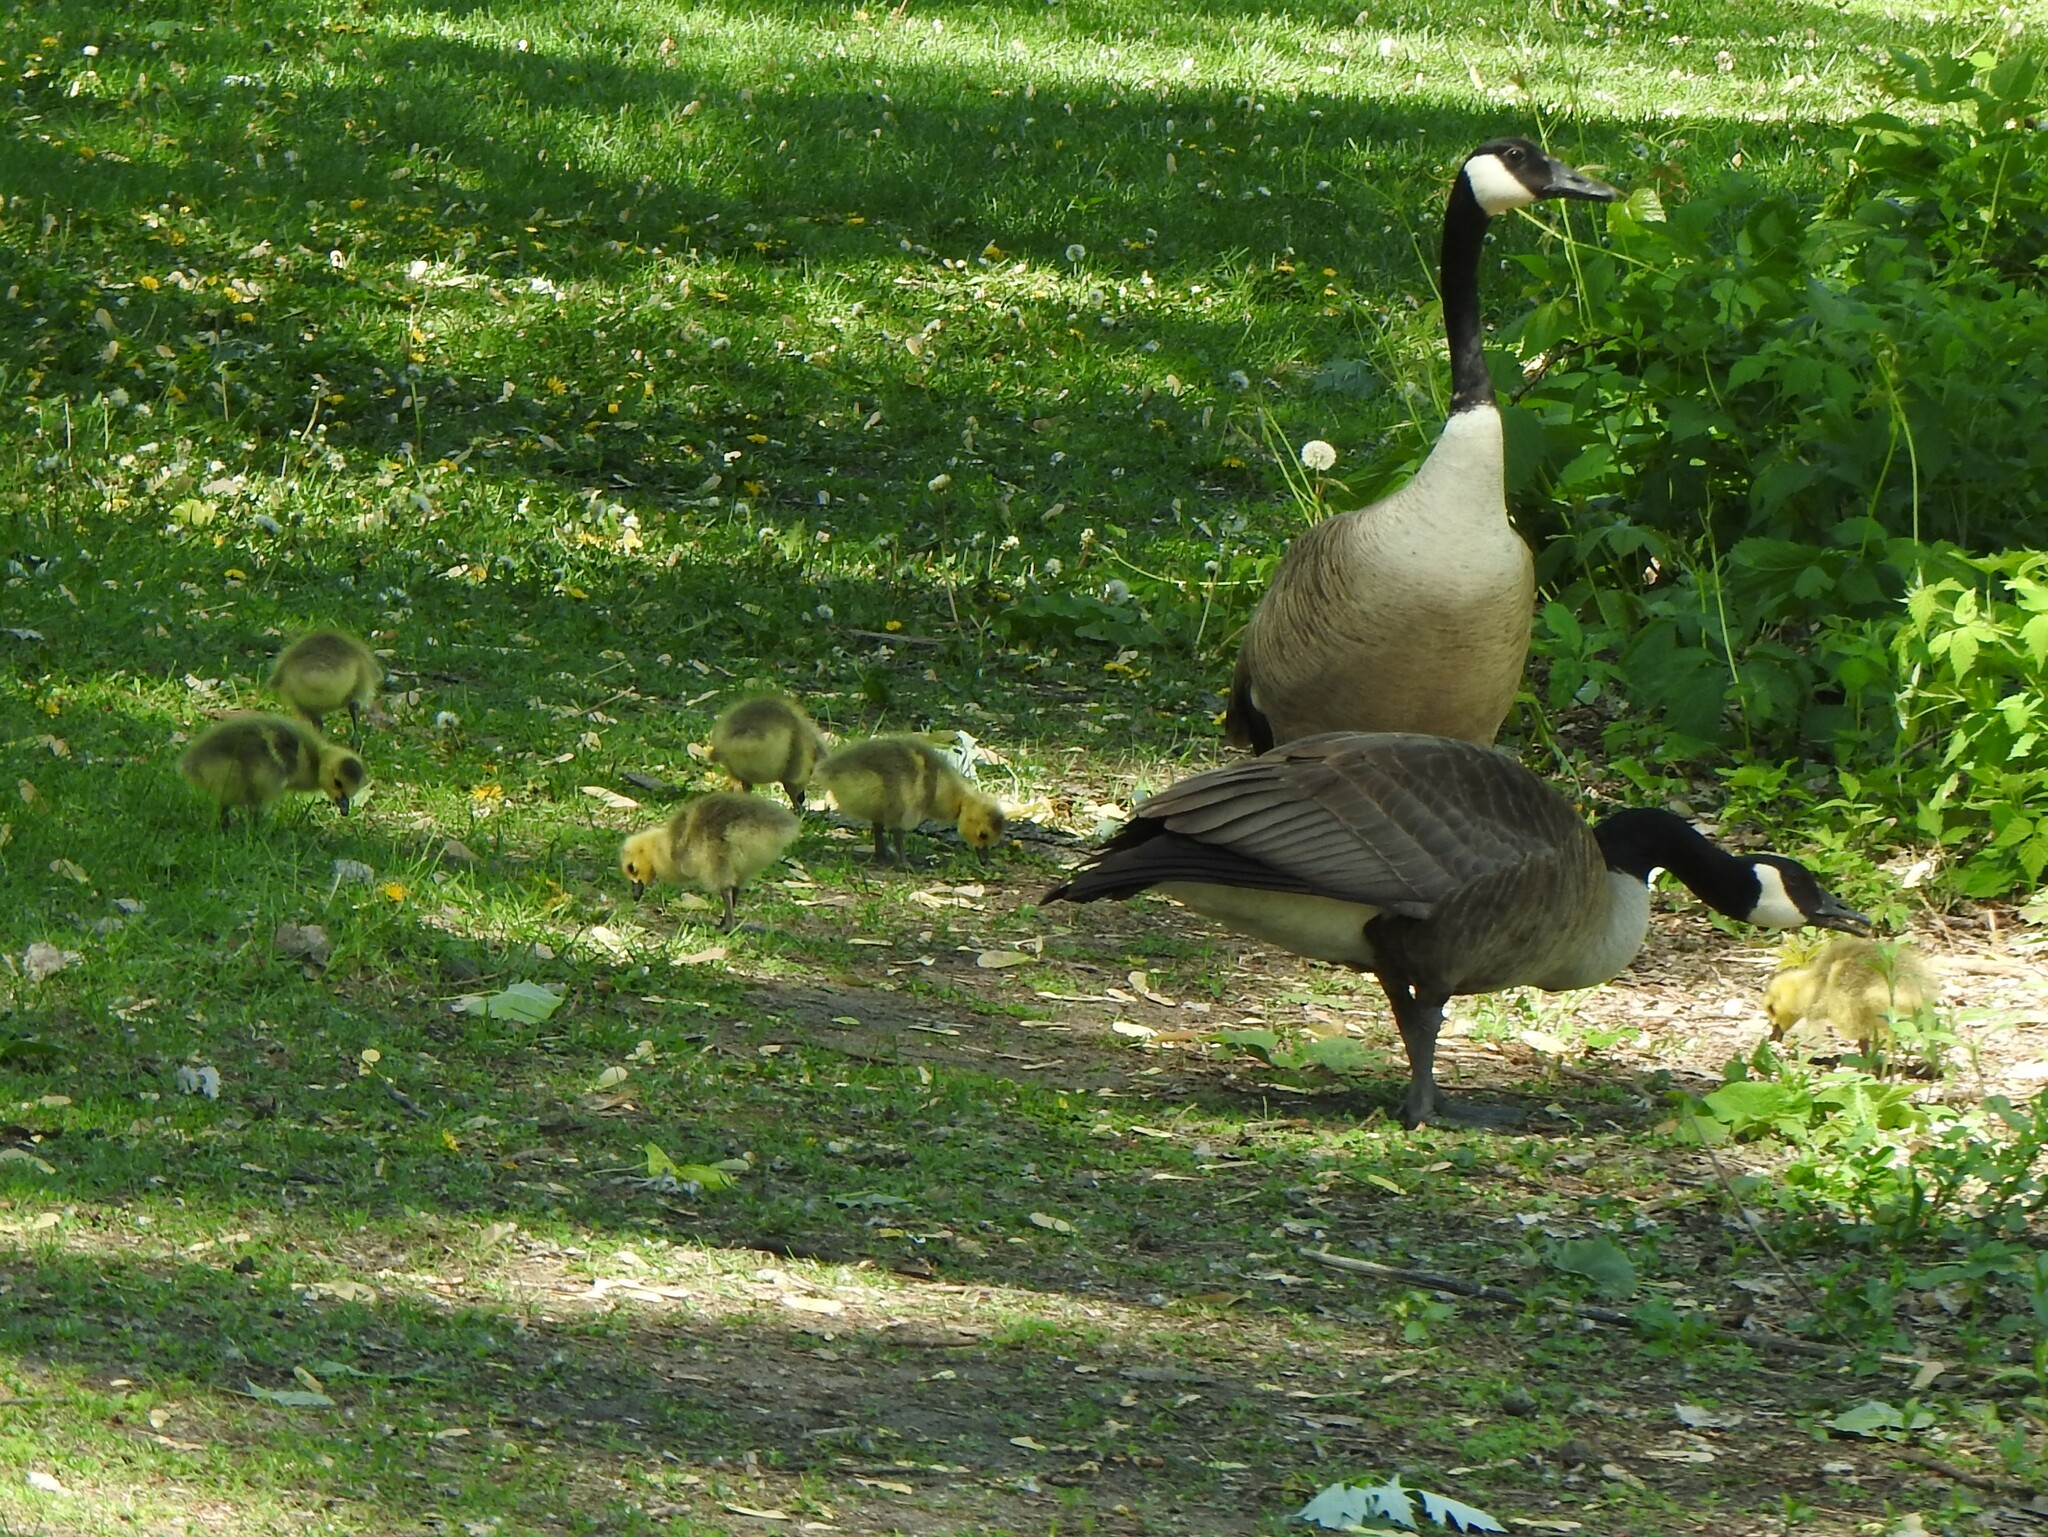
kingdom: Animalia
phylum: Chordata
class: Aves
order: Anseriformes
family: Anatidae
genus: Branta
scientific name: Branta canadensis
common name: Canada goose
